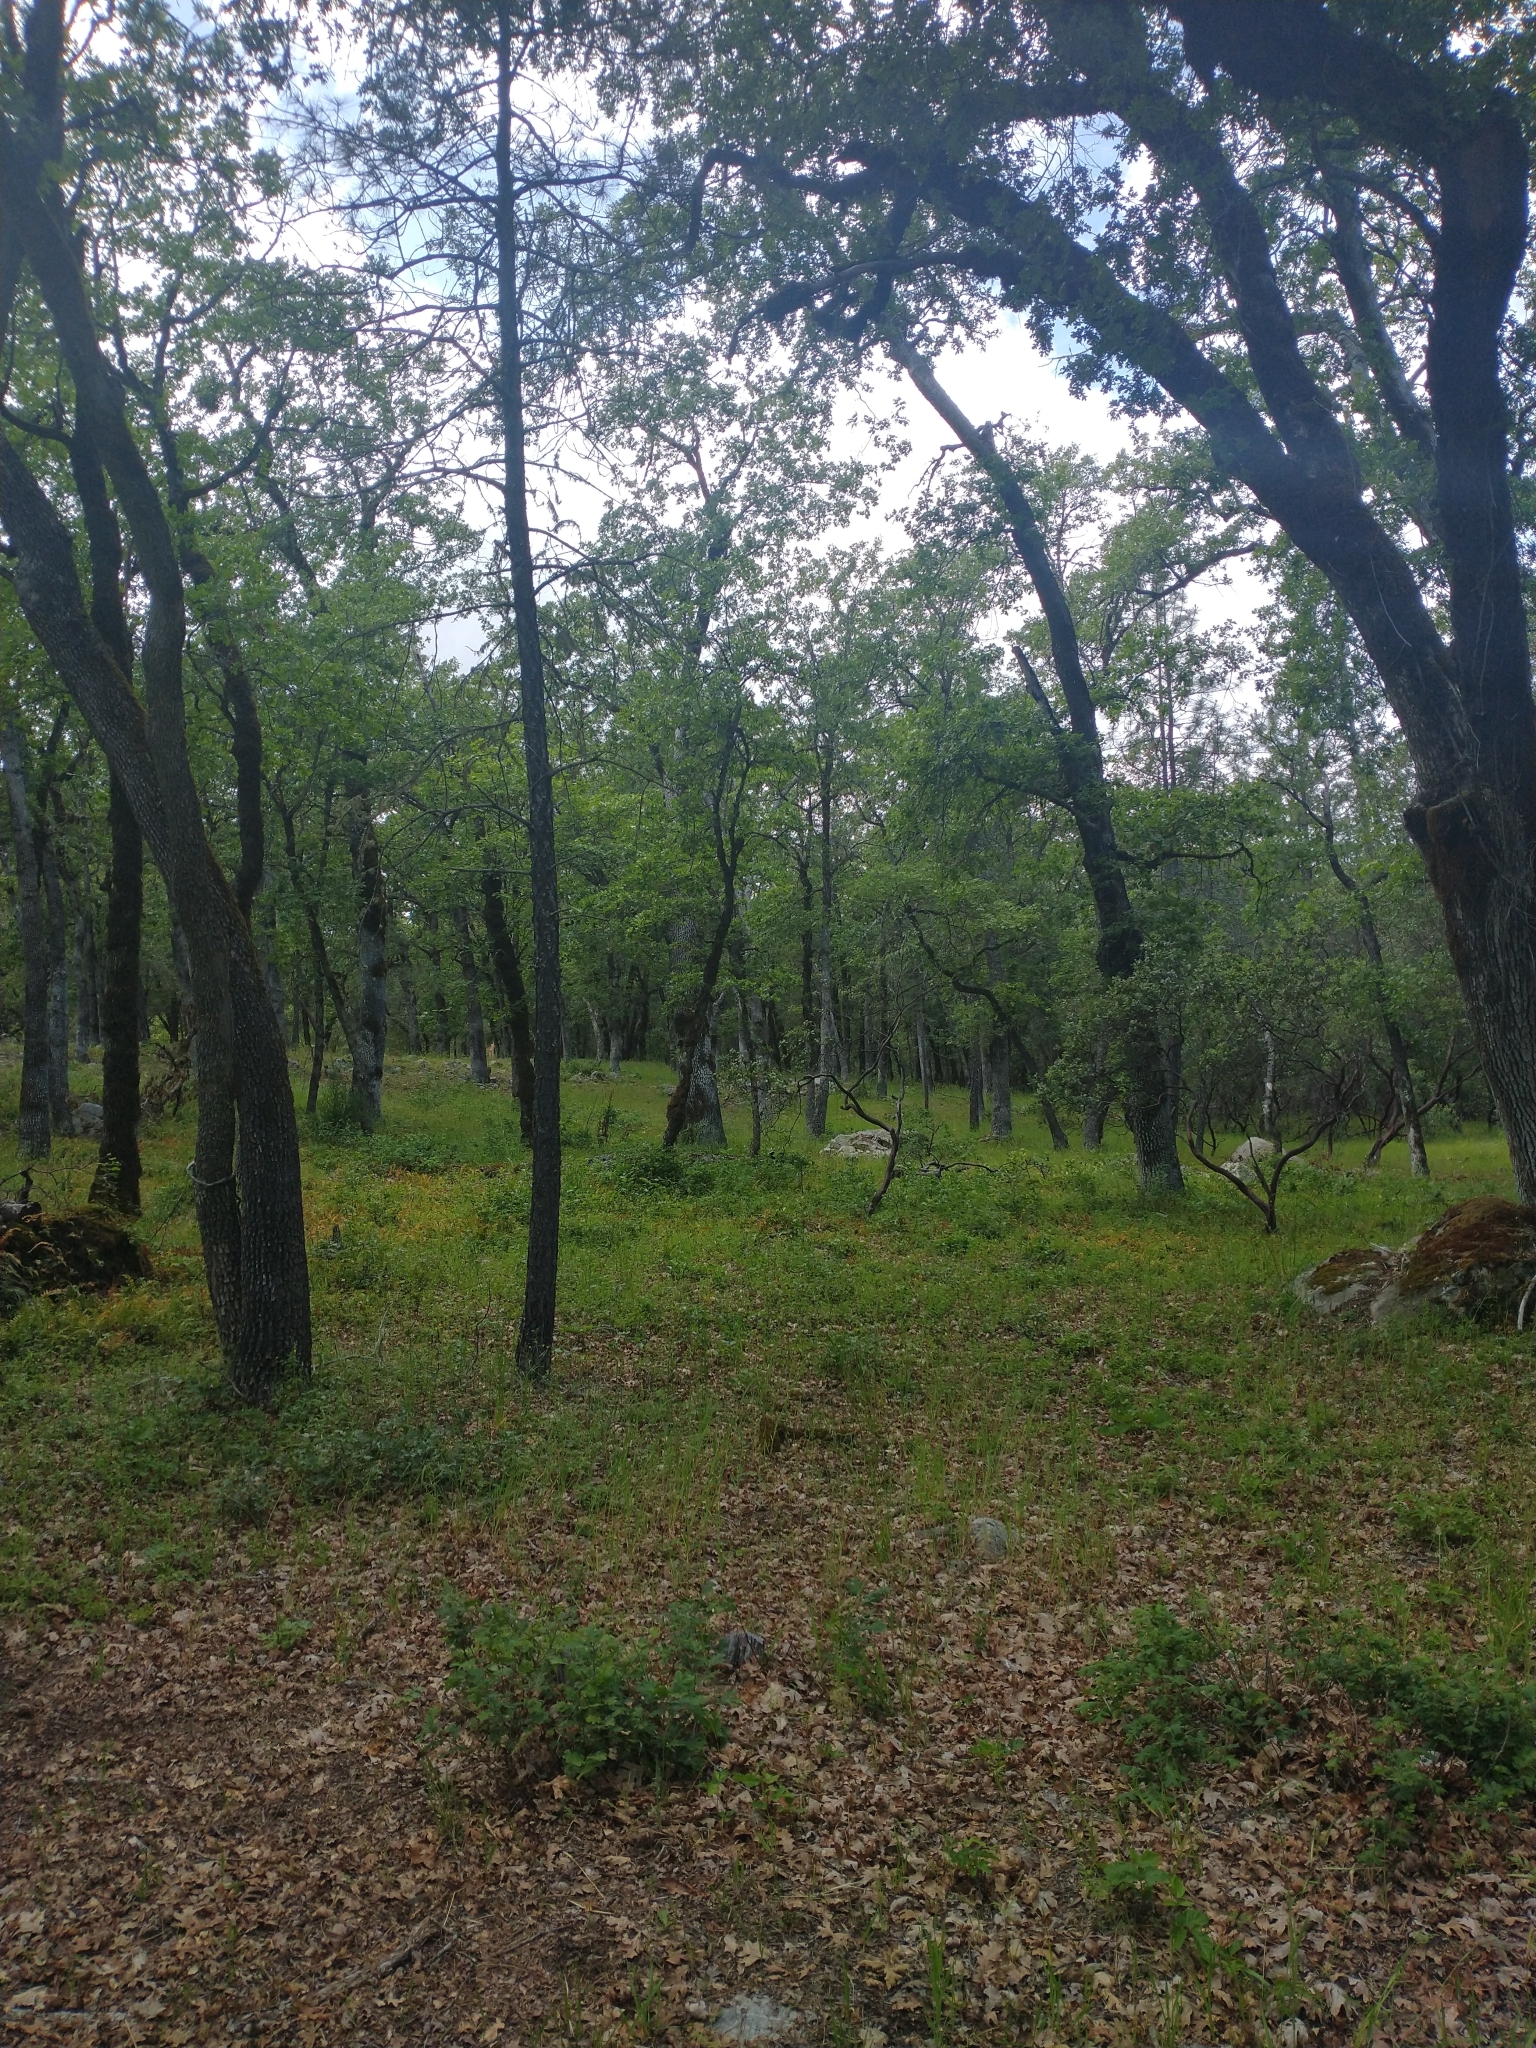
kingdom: Plantae
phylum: Tracheophyta
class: Magnoliopsida
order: Fagales
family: Fagaceae
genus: Quercus
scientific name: Quercus garryana
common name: Garry oak
